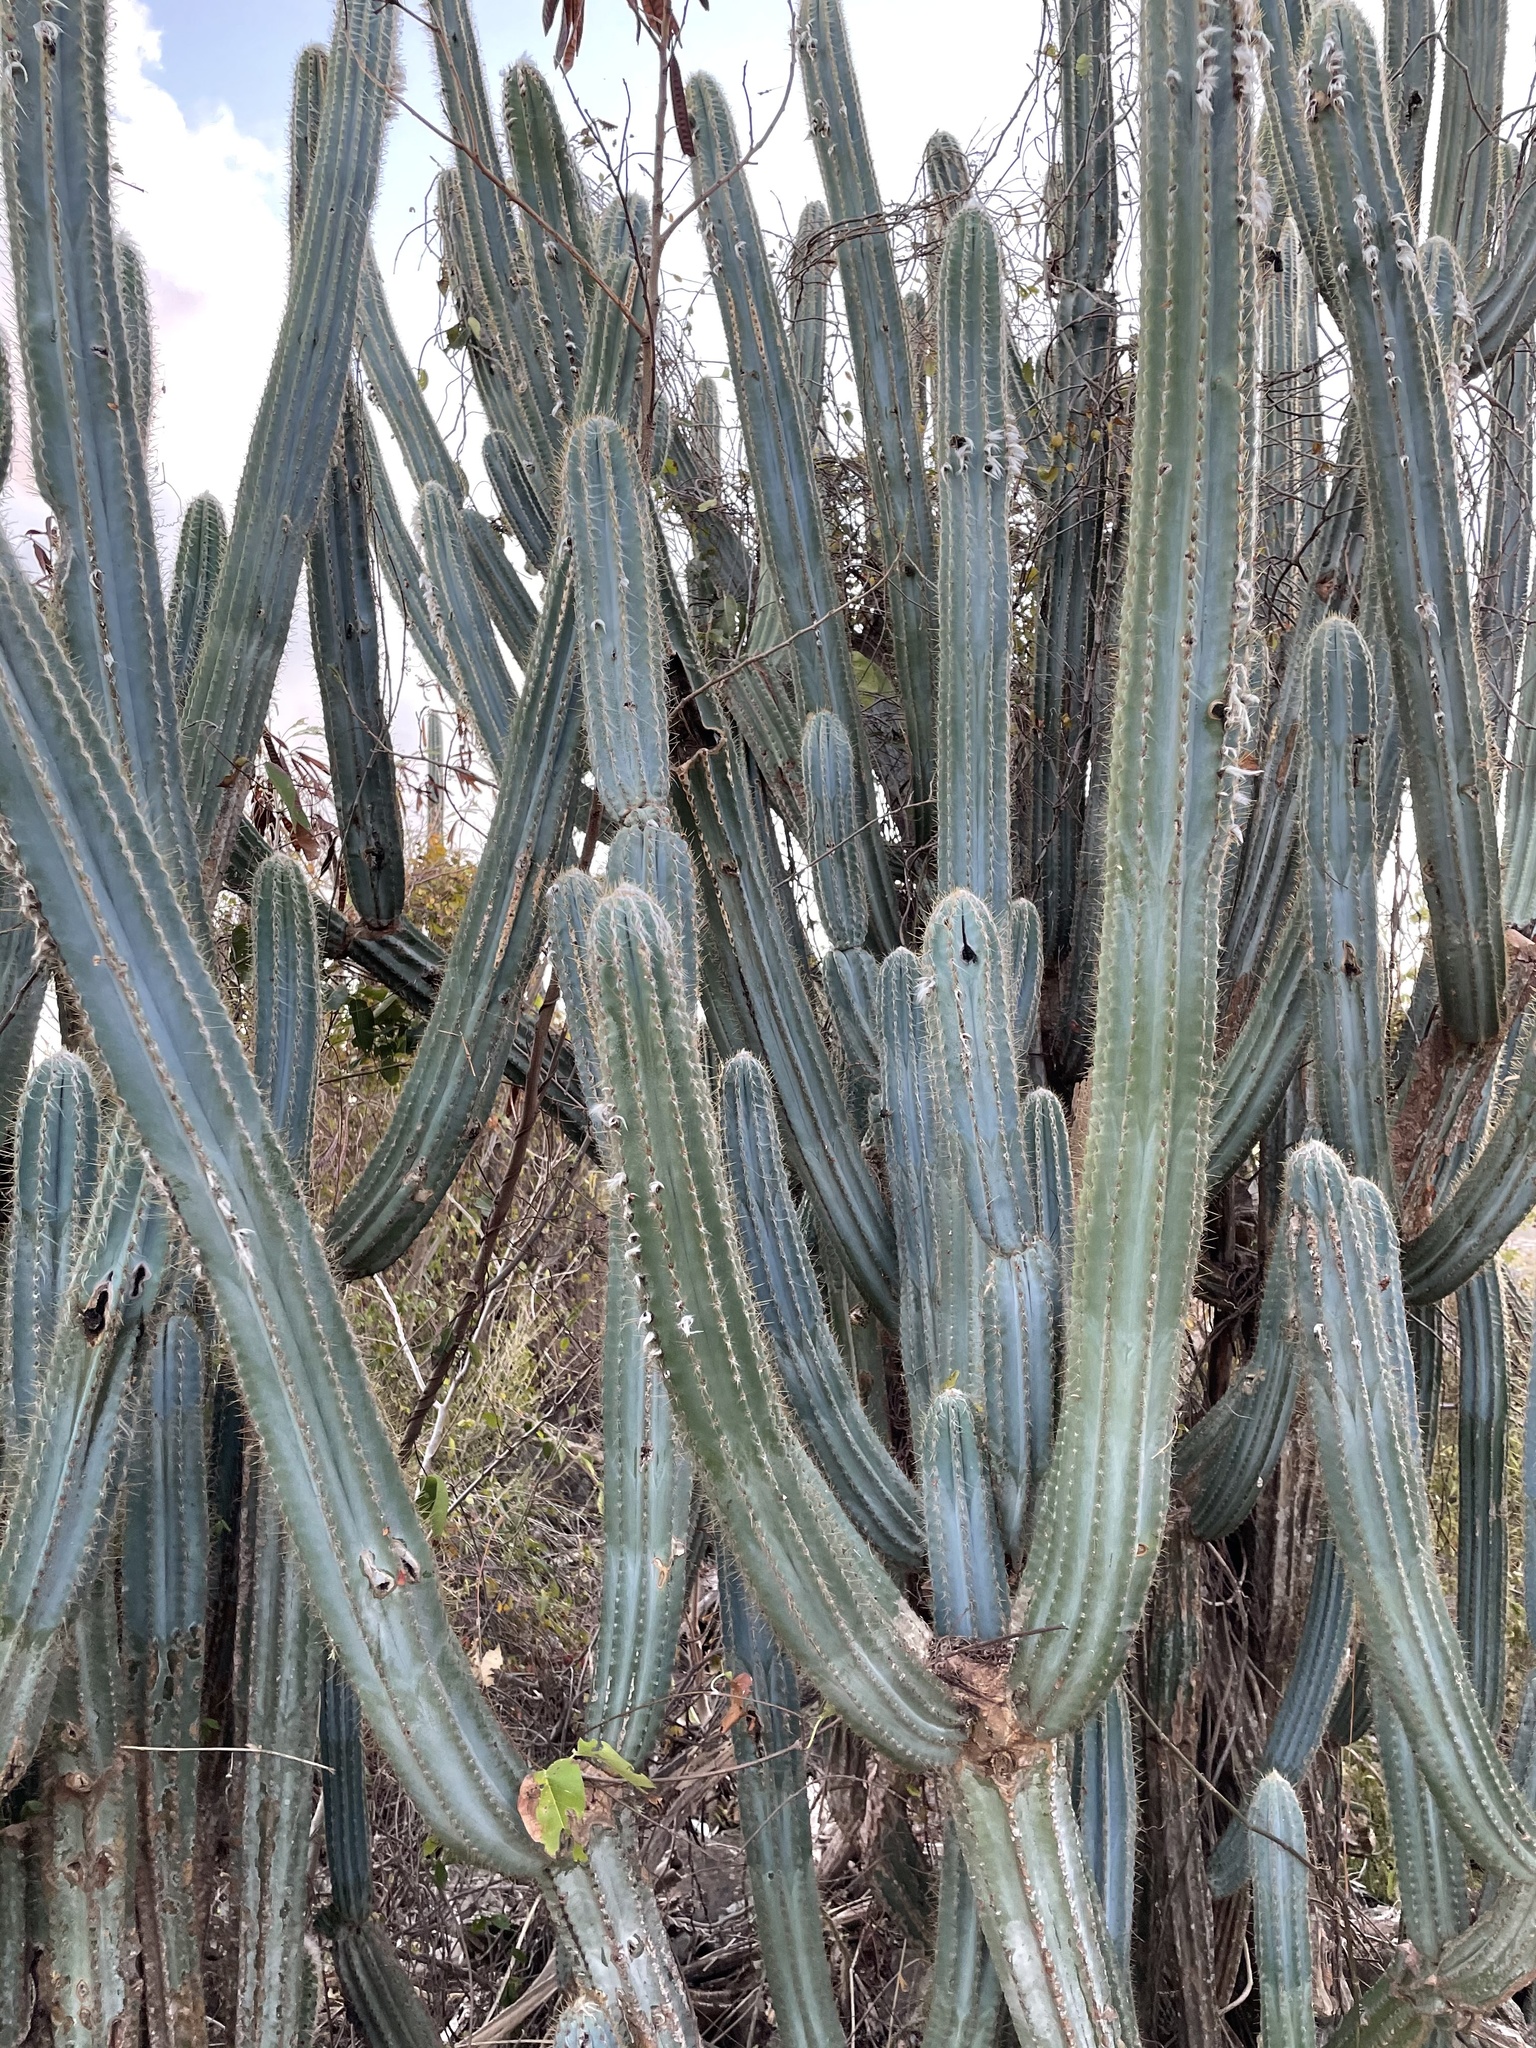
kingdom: Plantae
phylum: Tracheophyta
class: Magnoliopsida
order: Caryophyllales
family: Cactaceae
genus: Pilosocereus
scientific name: Pilosocereus armatus
